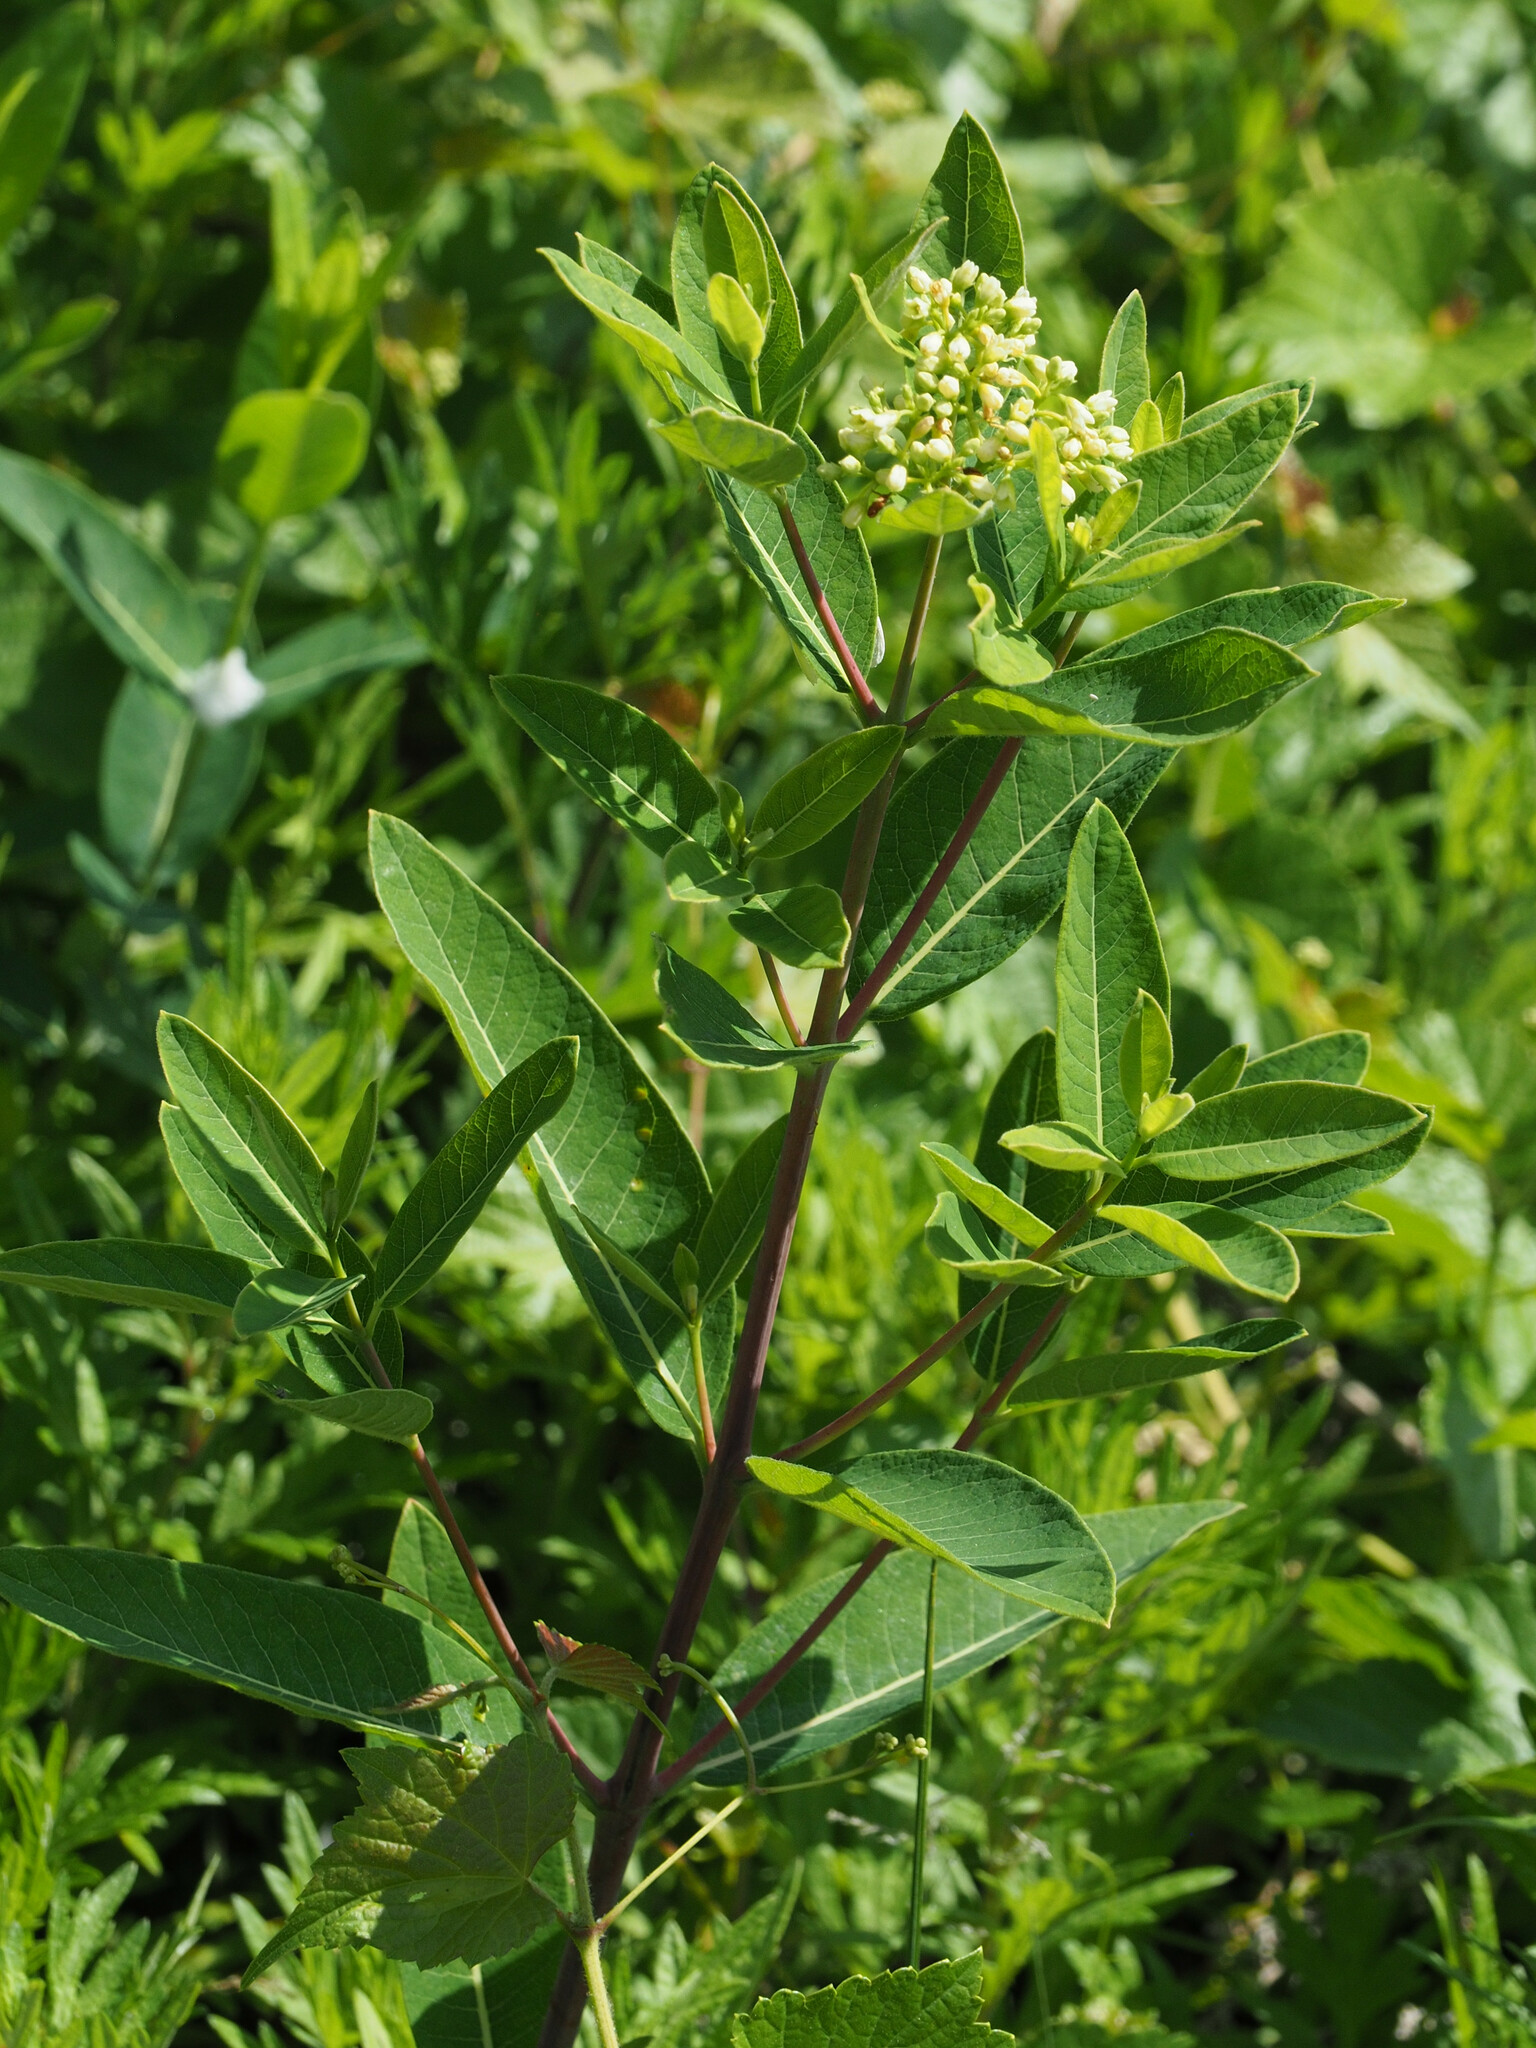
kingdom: Plantae
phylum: Tracheophyta
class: Magnoliopsida
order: Gentianales
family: Apocynaceae
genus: Apocynum
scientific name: Apocynum cannabinum
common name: Hemp dogbane
